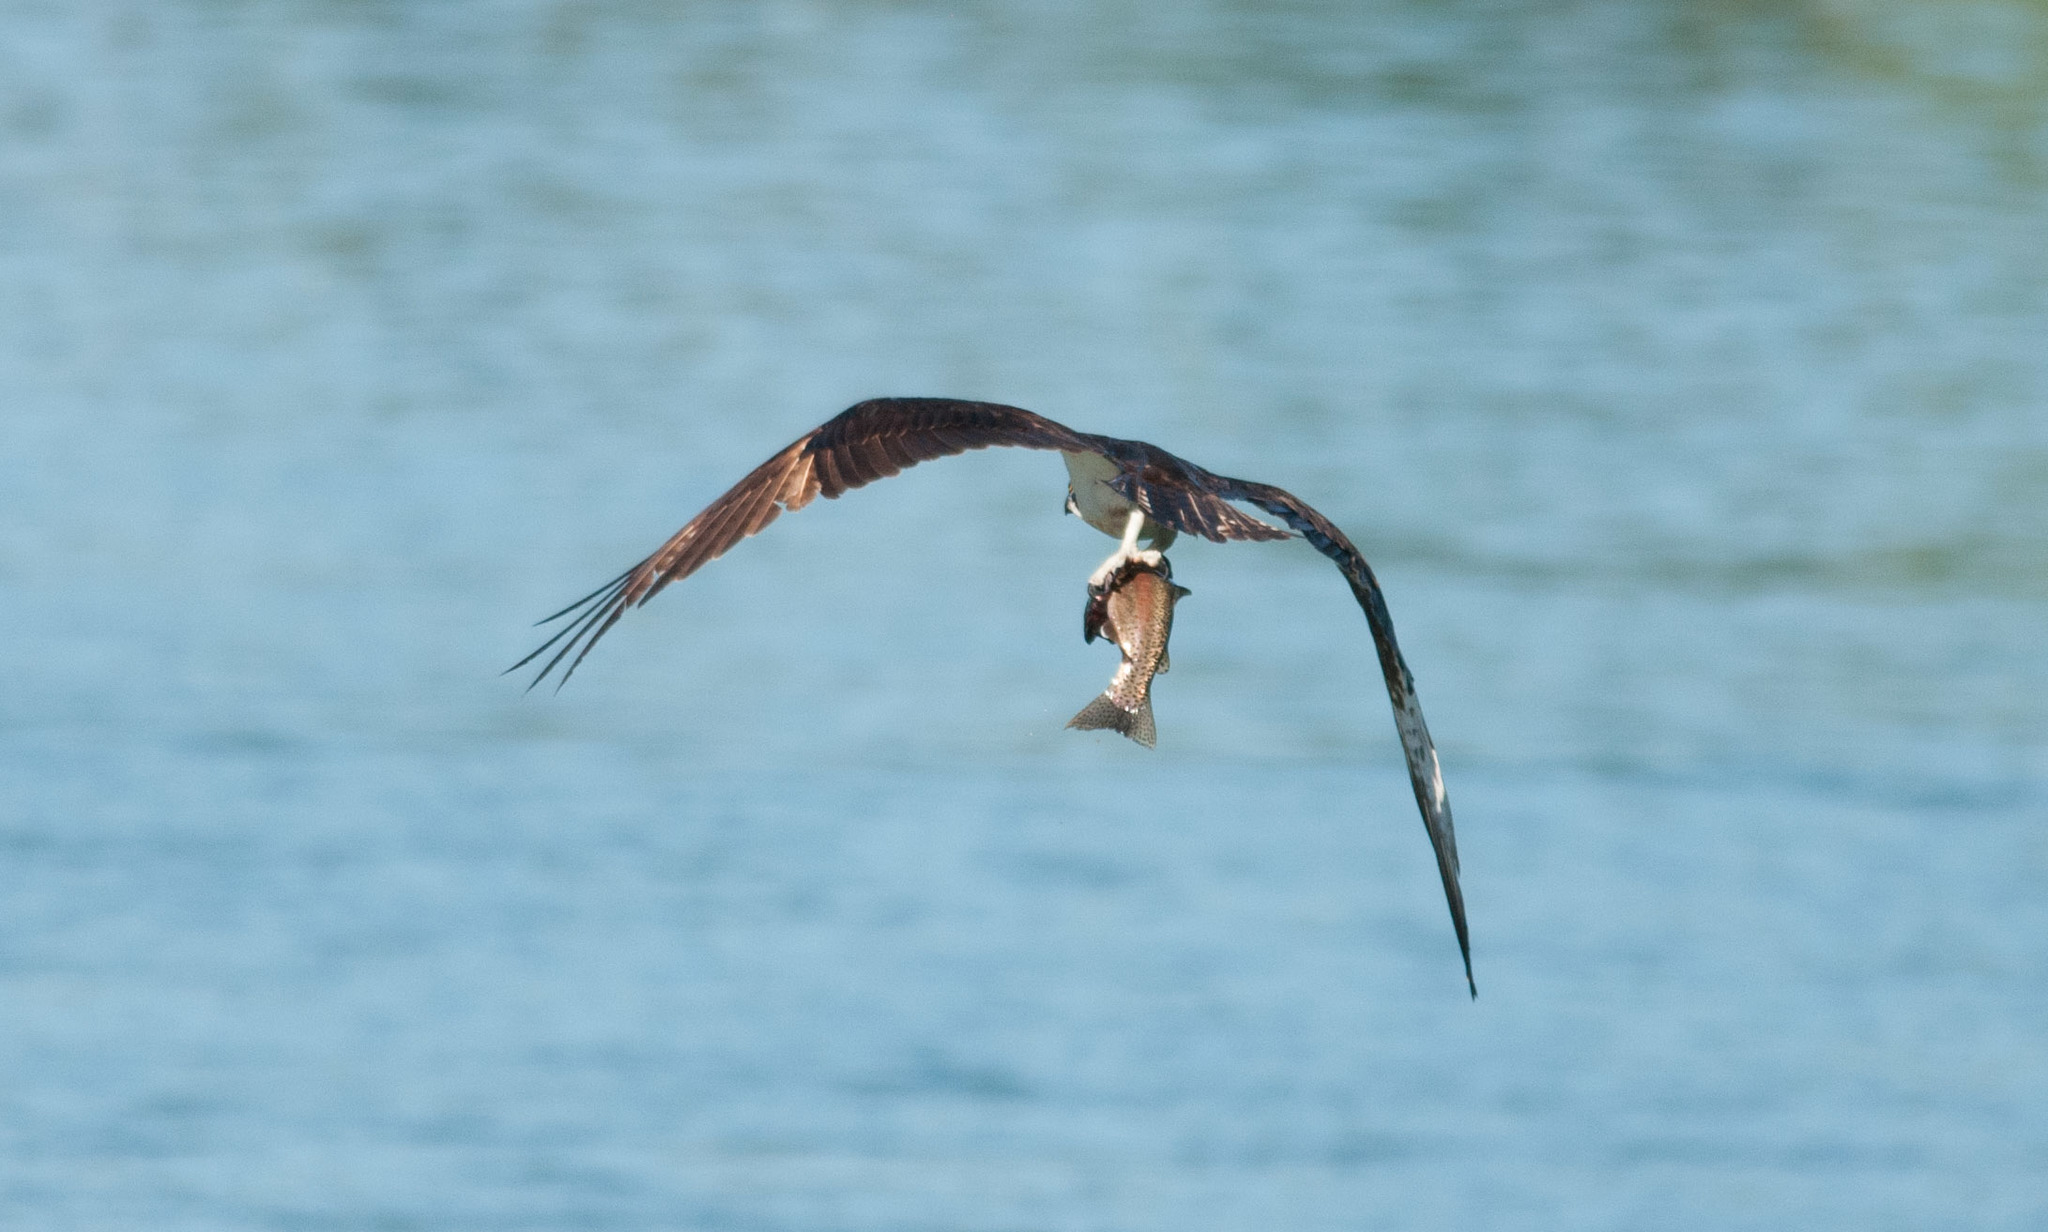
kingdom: Animalia
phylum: Chordata
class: Aves
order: Accipitriformes
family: Pandionidae
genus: Pandion
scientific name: Pandion haliaetus
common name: Osprey
